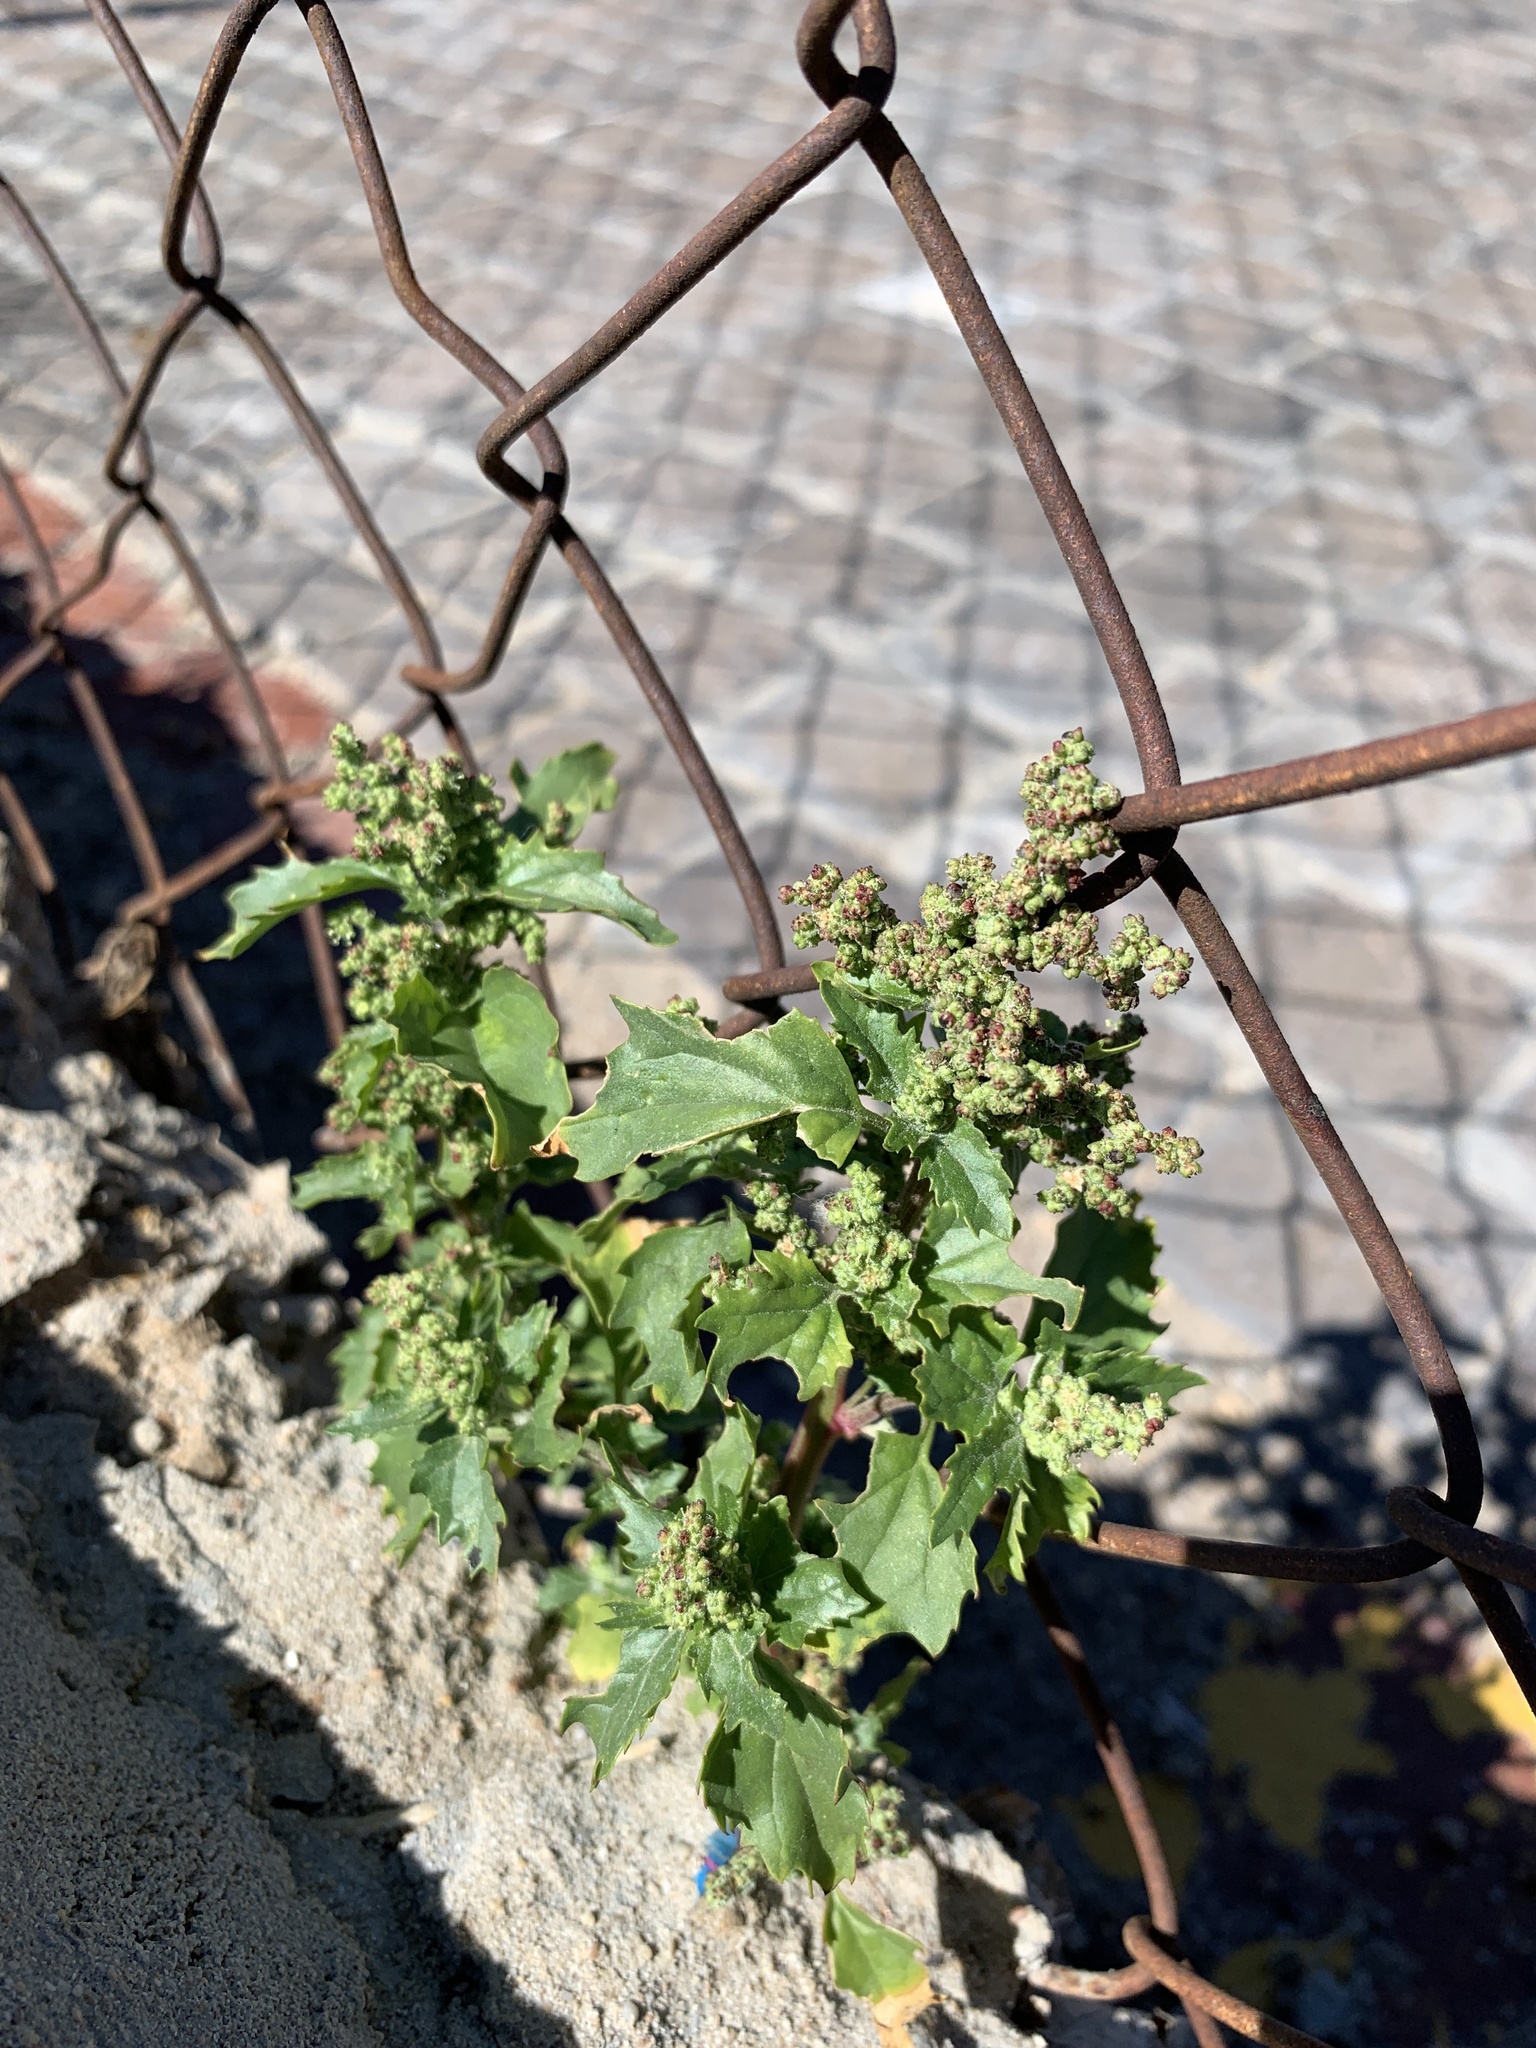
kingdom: Plantae
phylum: Tracheophyta
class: Magnoliopsida
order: Caryophyllales
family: Amaranthaceae
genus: Chenopodiastrum
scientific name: Chenopodiastrum murale
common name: Sowbane
